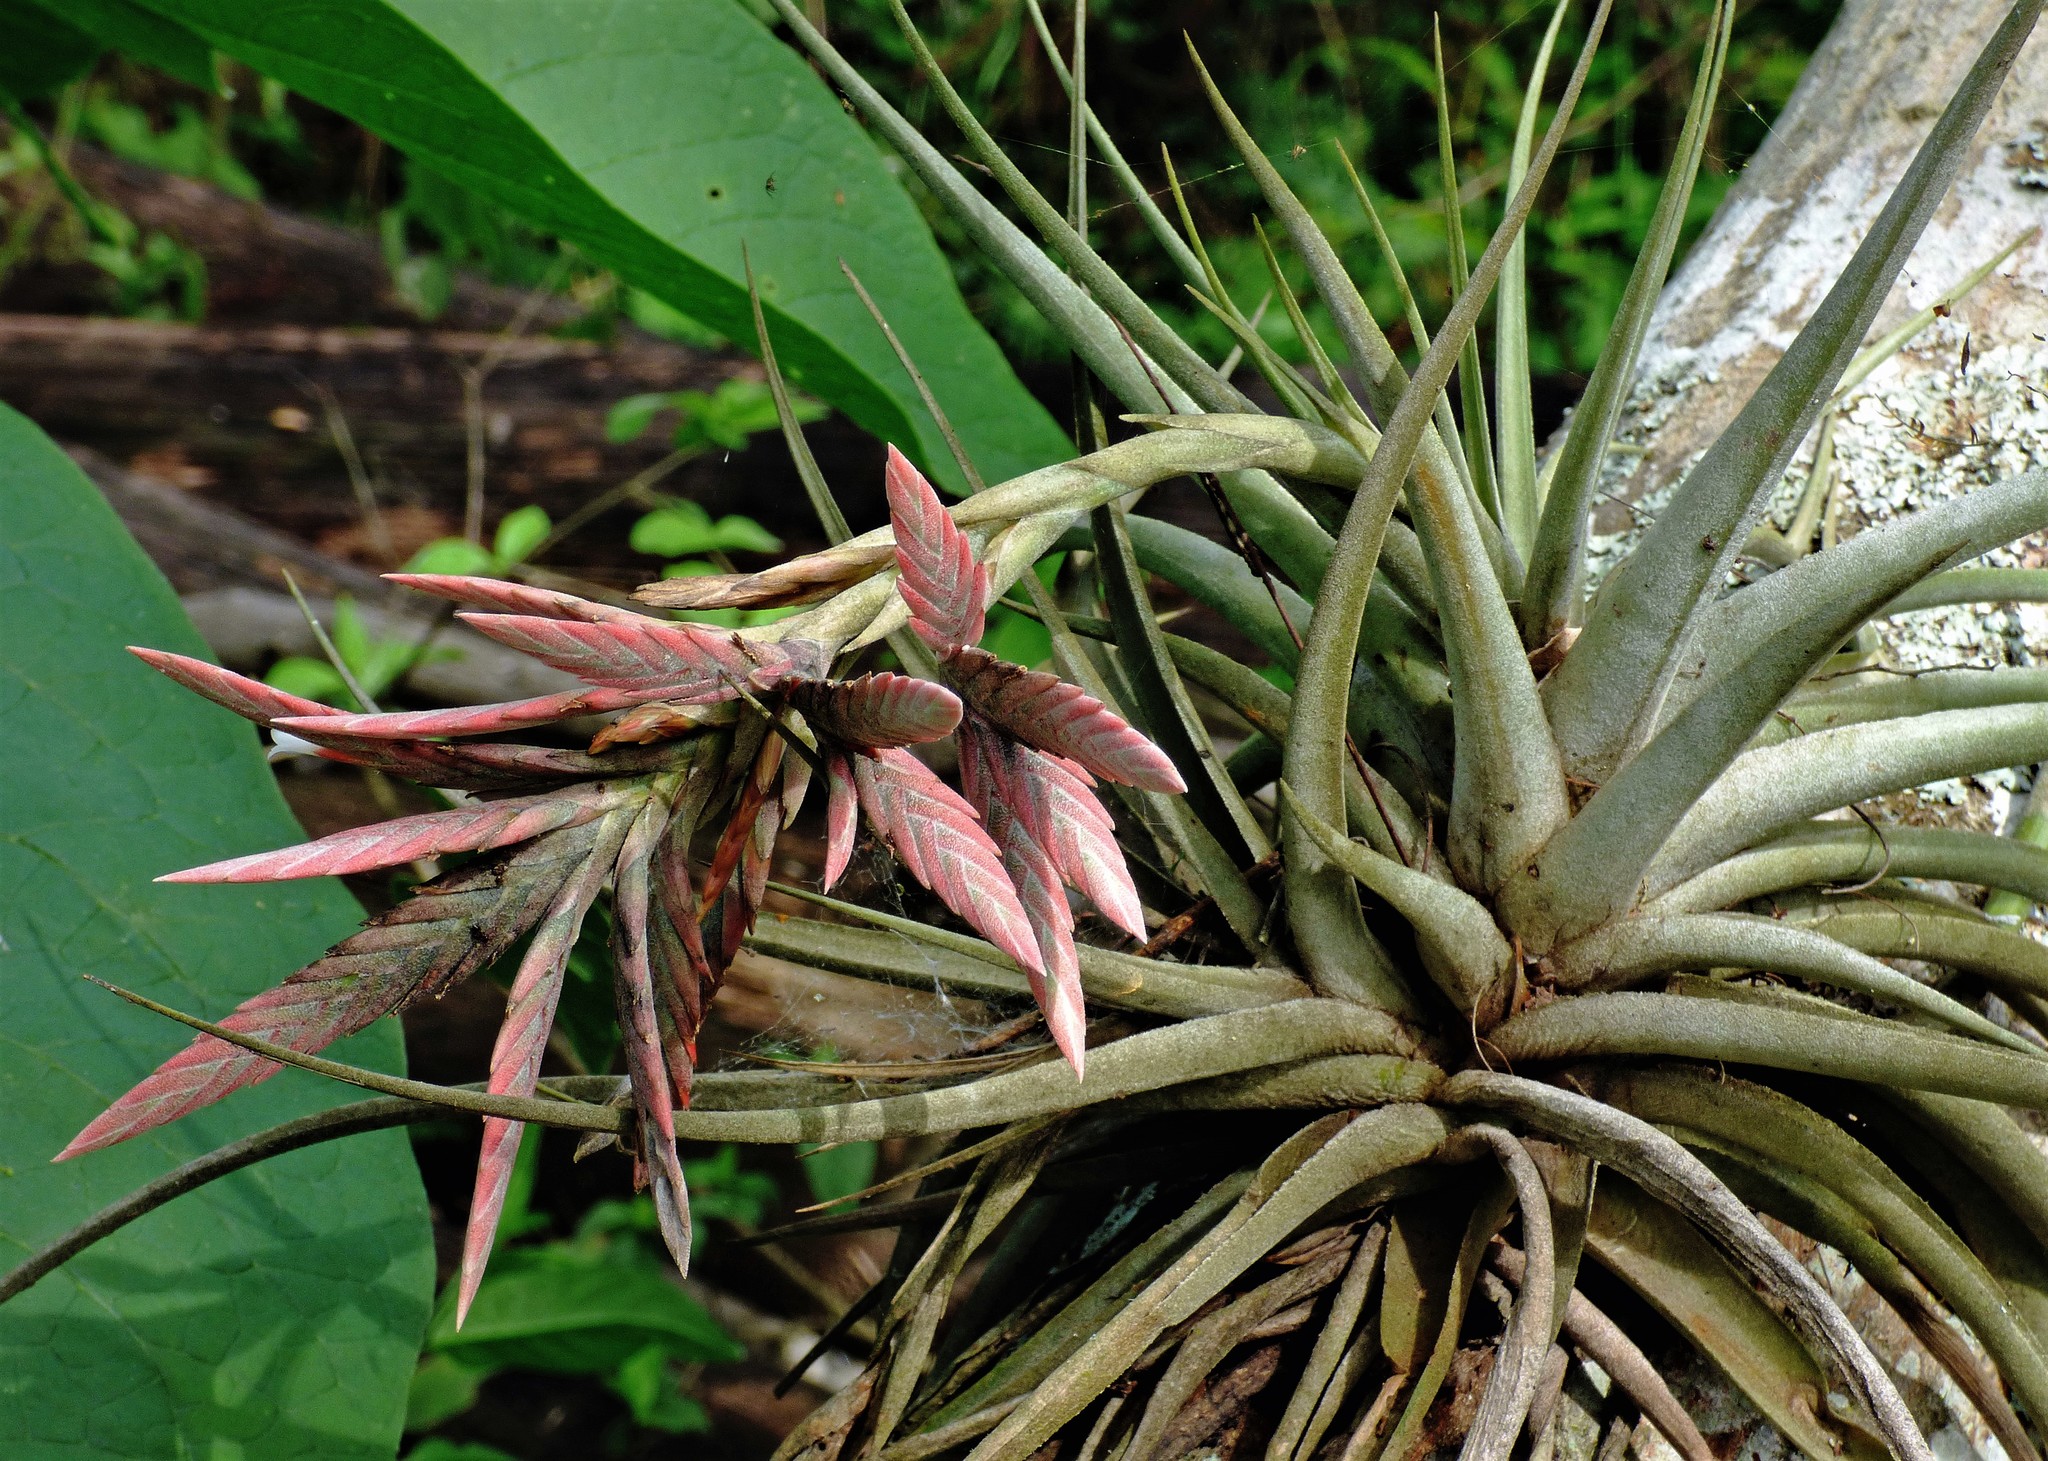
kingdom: Plantae
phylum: Tracheophyta
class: Liliopsida
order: Poales
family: Bromeliaceae
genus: Tillandsia
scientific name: Tillandsia didisticha
